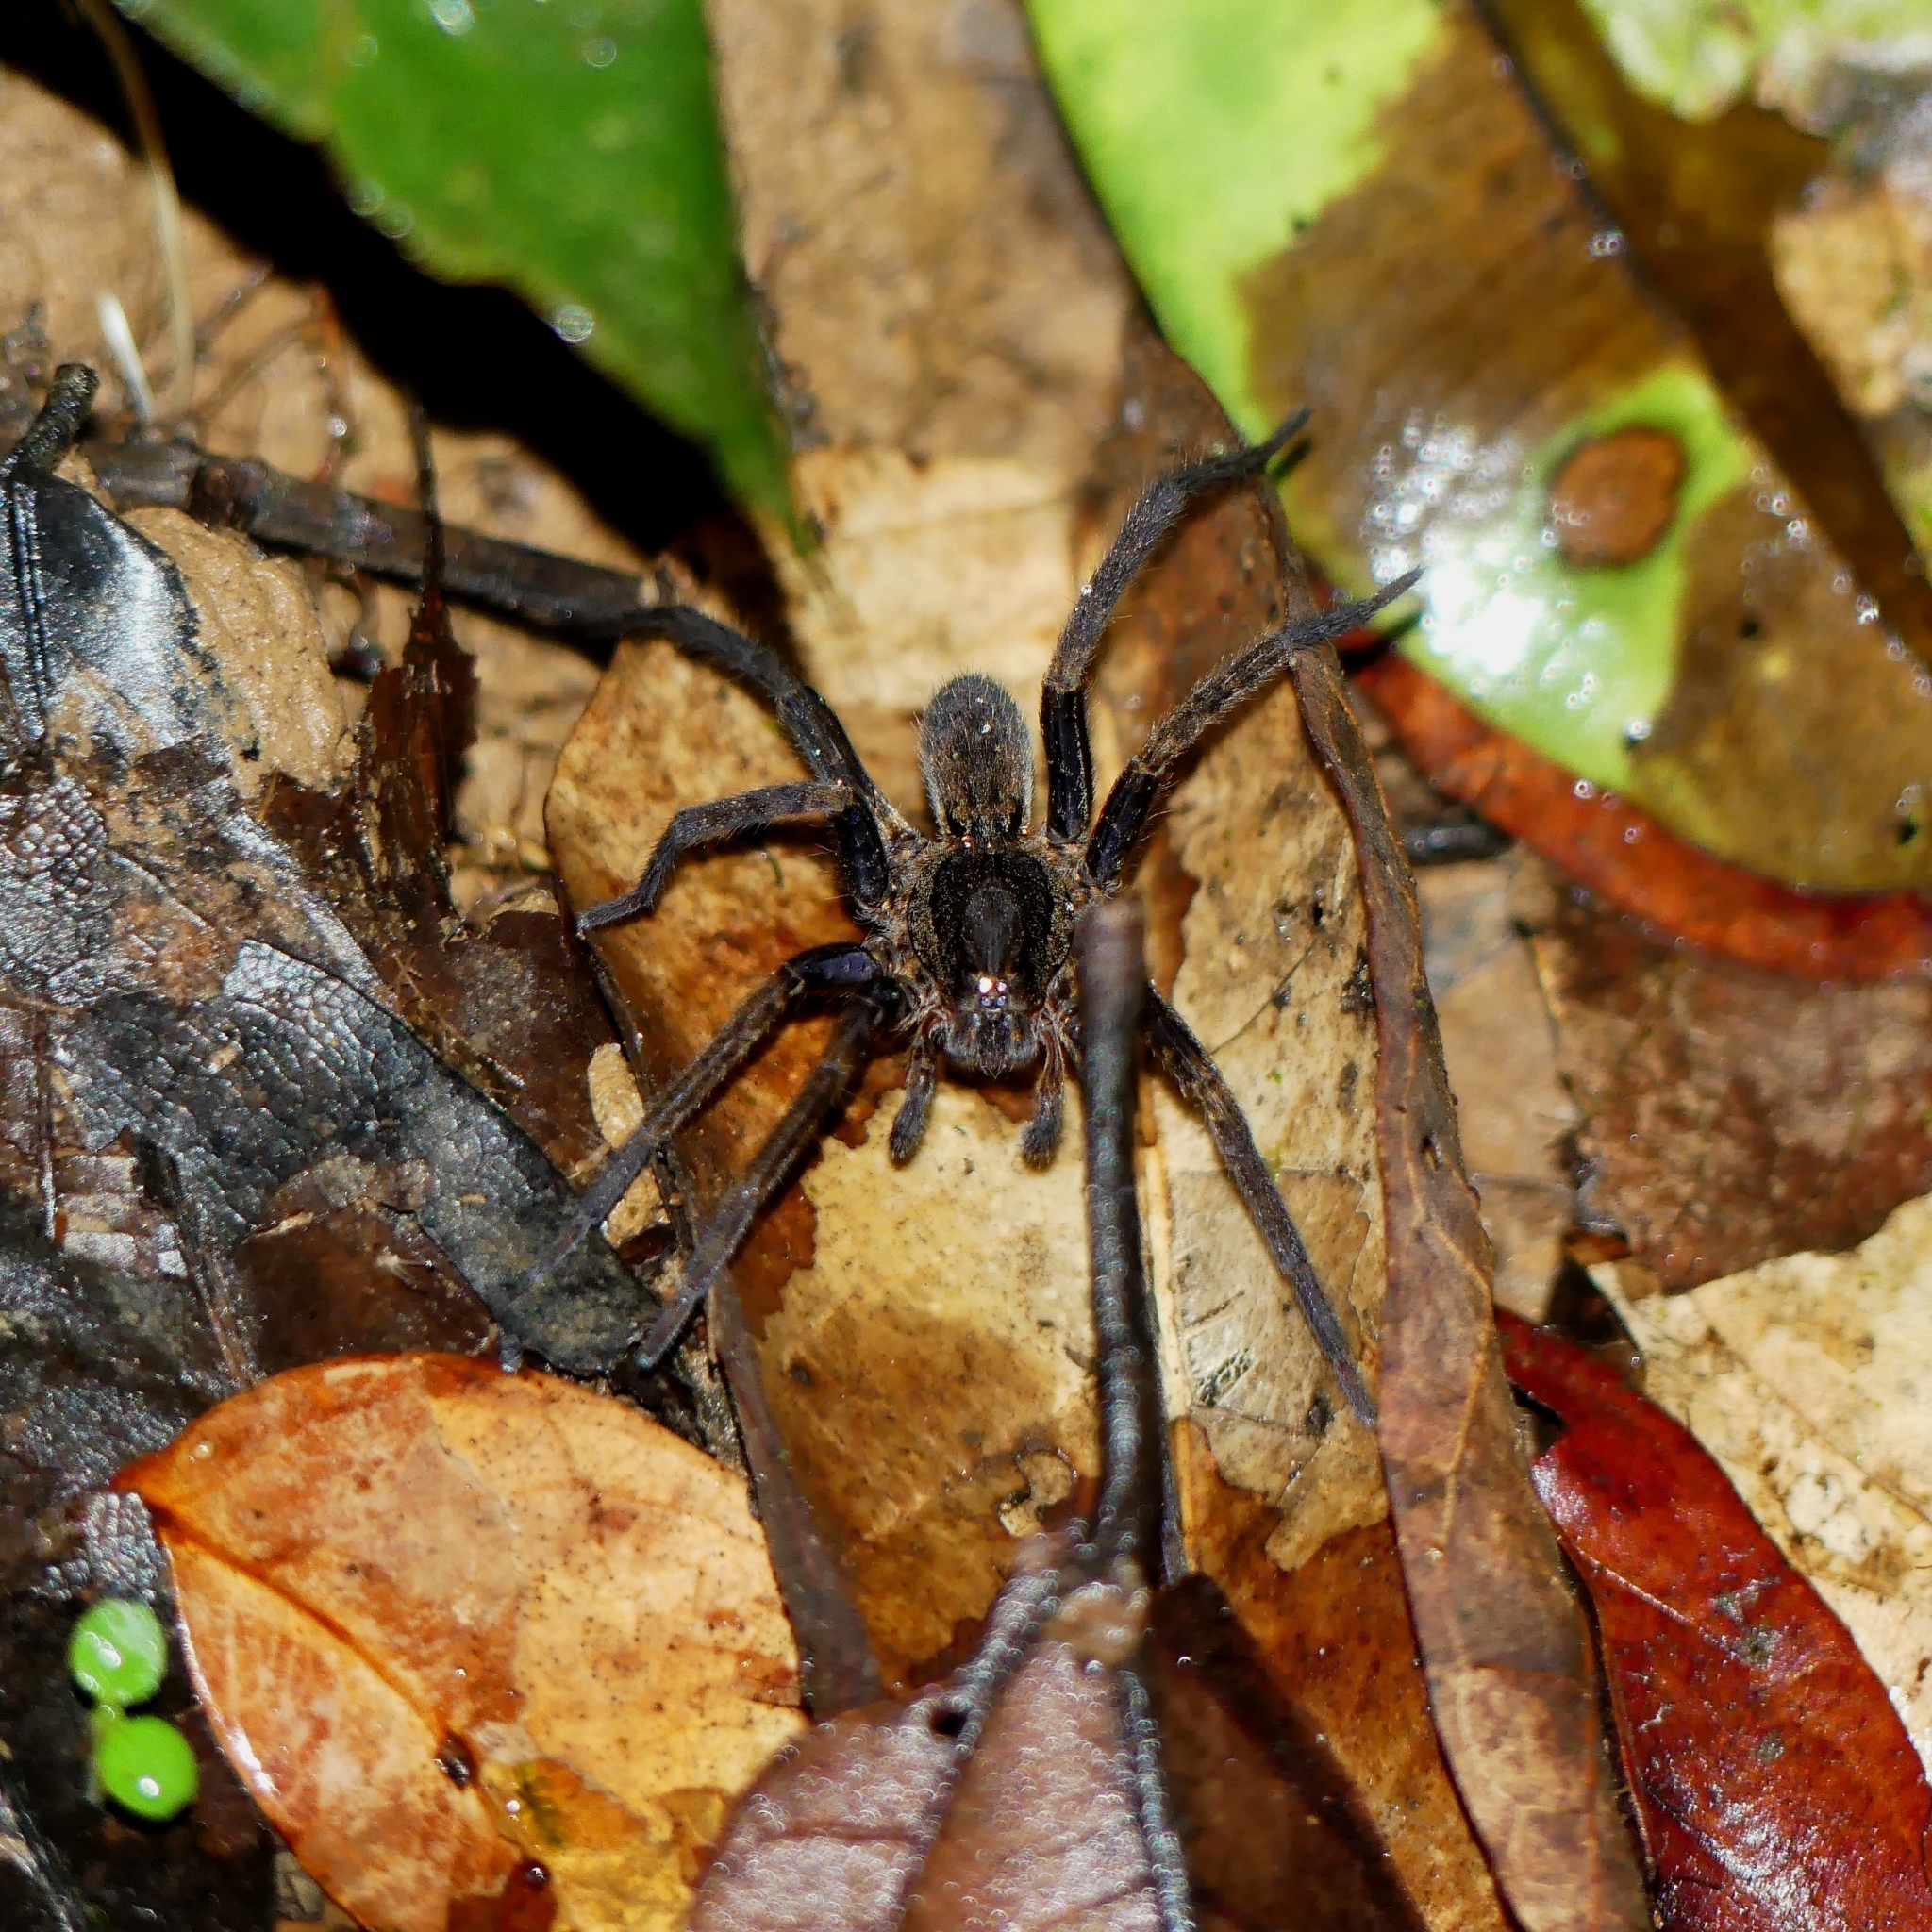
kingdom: Animalia
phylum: Arthropoda
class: Arachnida
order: Araneae
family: Ctenidae
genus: Ancylometes
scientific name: Ancylometes
